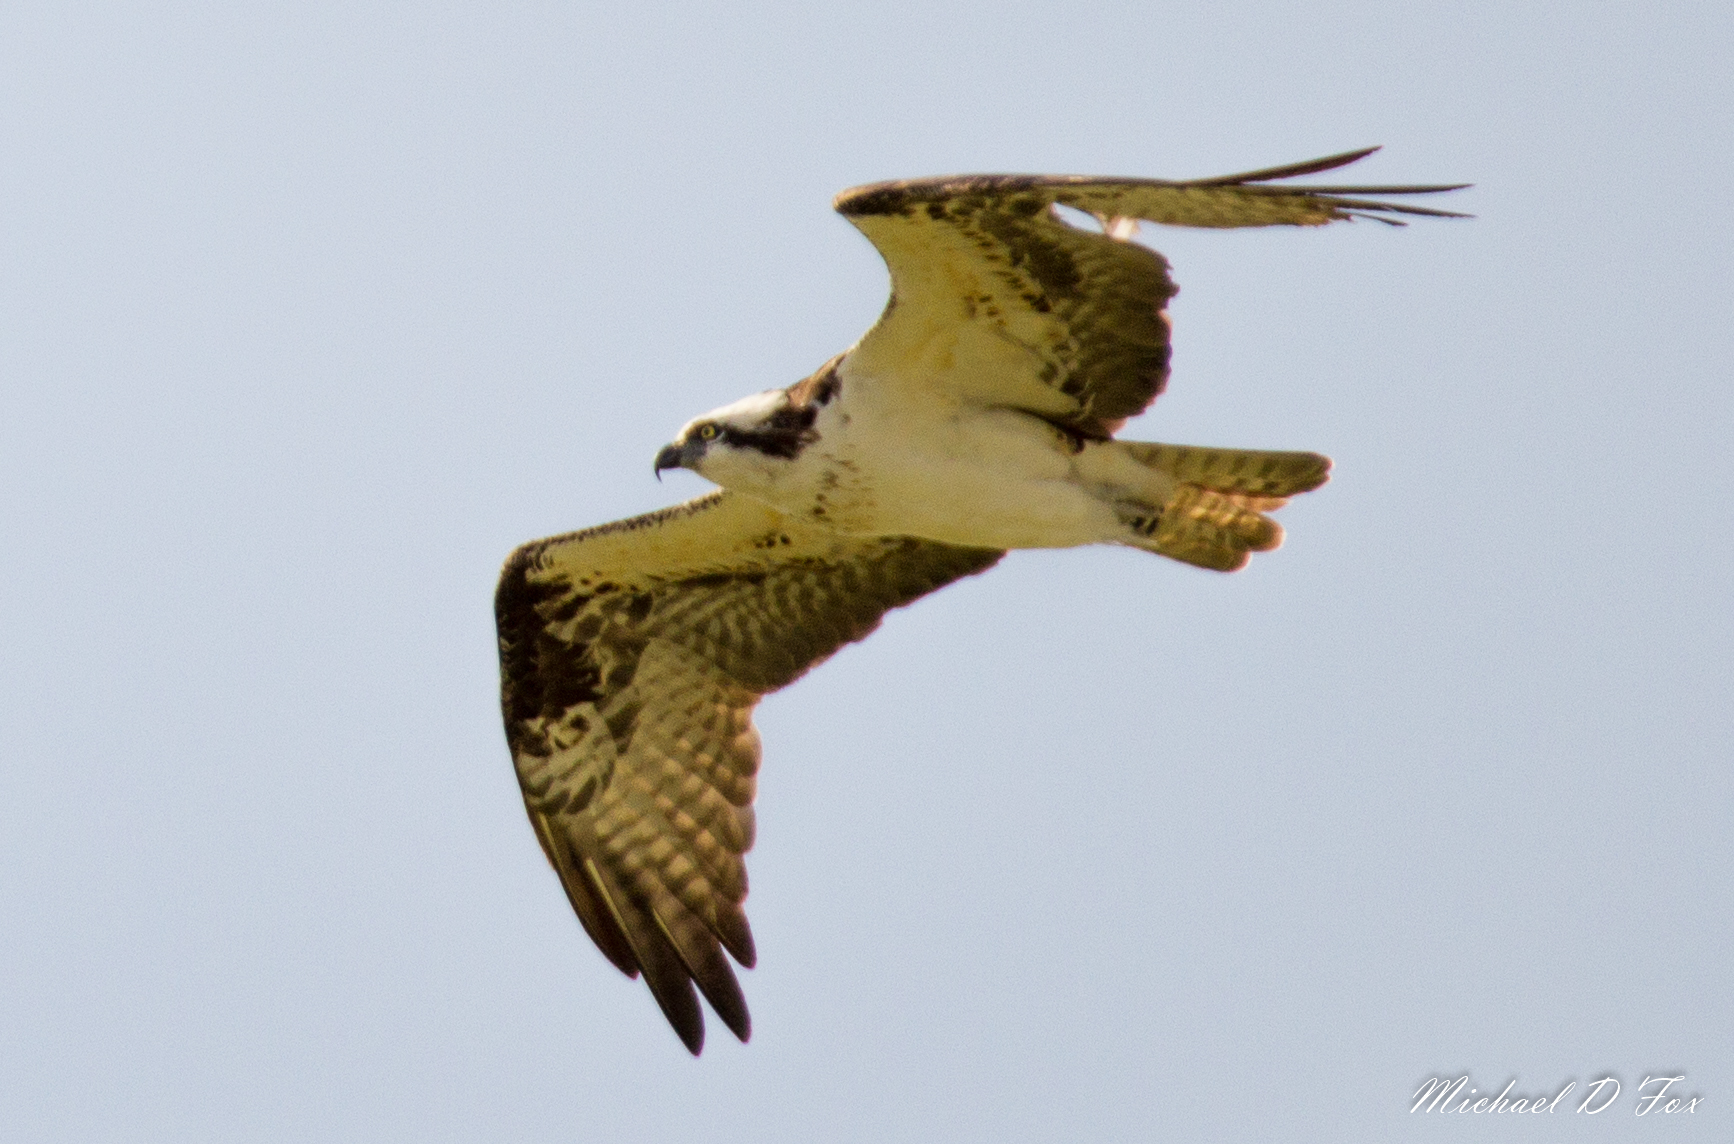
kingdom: Animalia
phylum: Chordata
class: Aves
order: Accipitriformes
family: Pandionidae
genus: Pandion
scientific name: Pandion haliaetus
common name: Osprey
